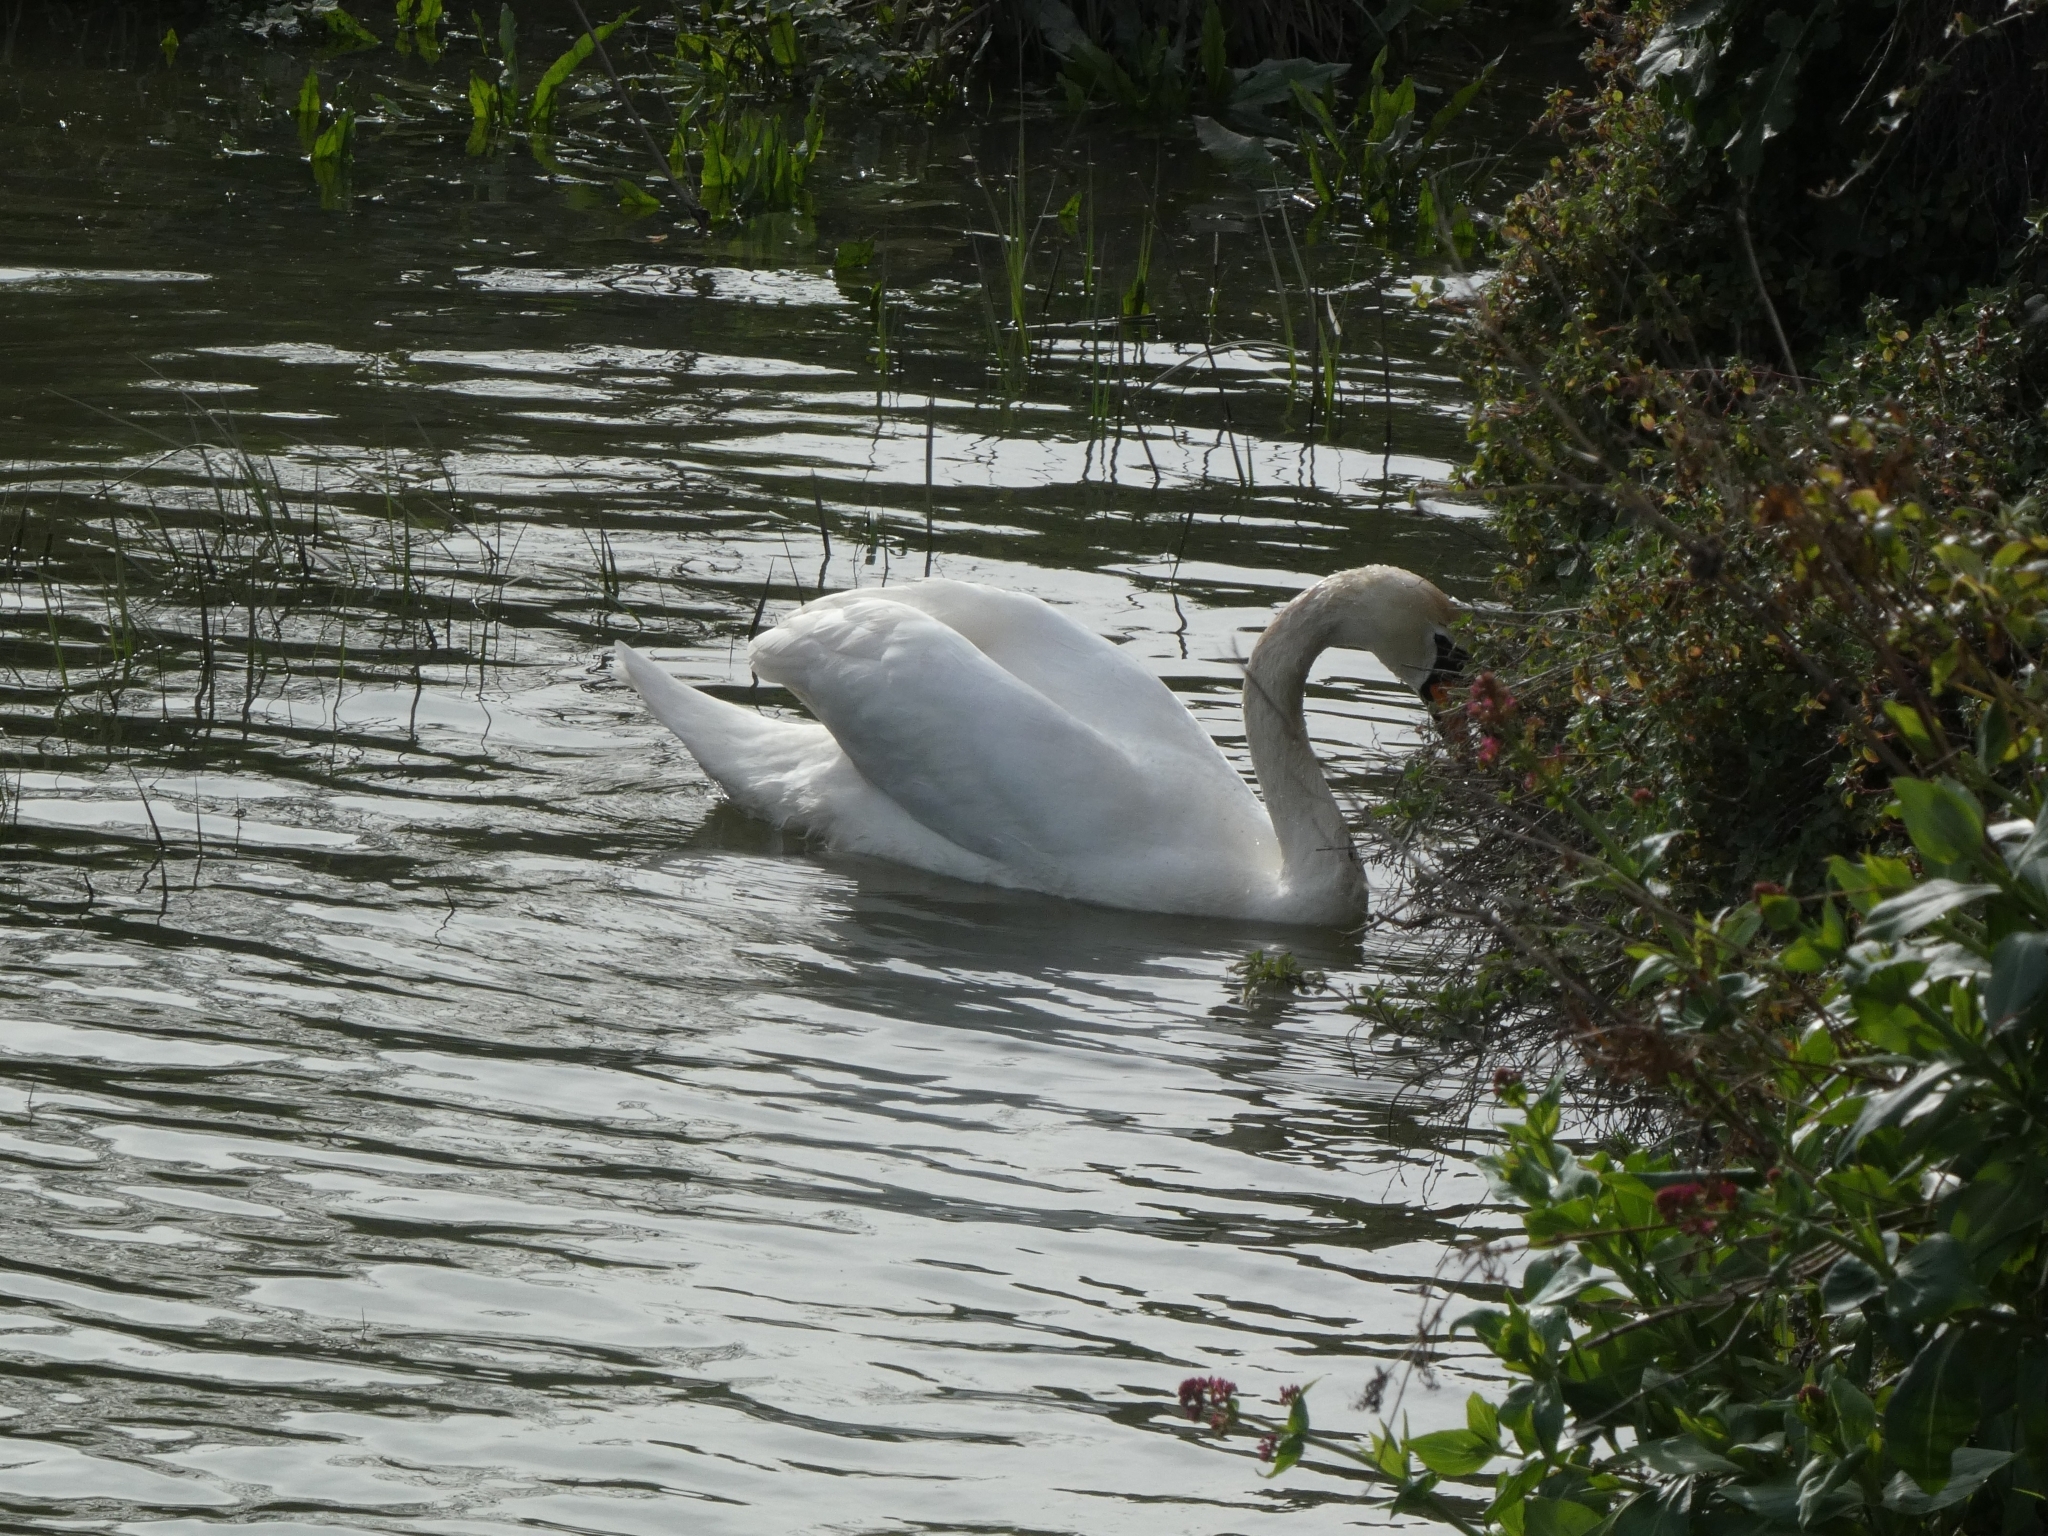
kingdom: Animalia
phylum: Chordata
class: Aves
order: Anseriformes
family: Anatidae
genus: Cygnus
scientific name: Cygnus olor
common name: Mute swan
